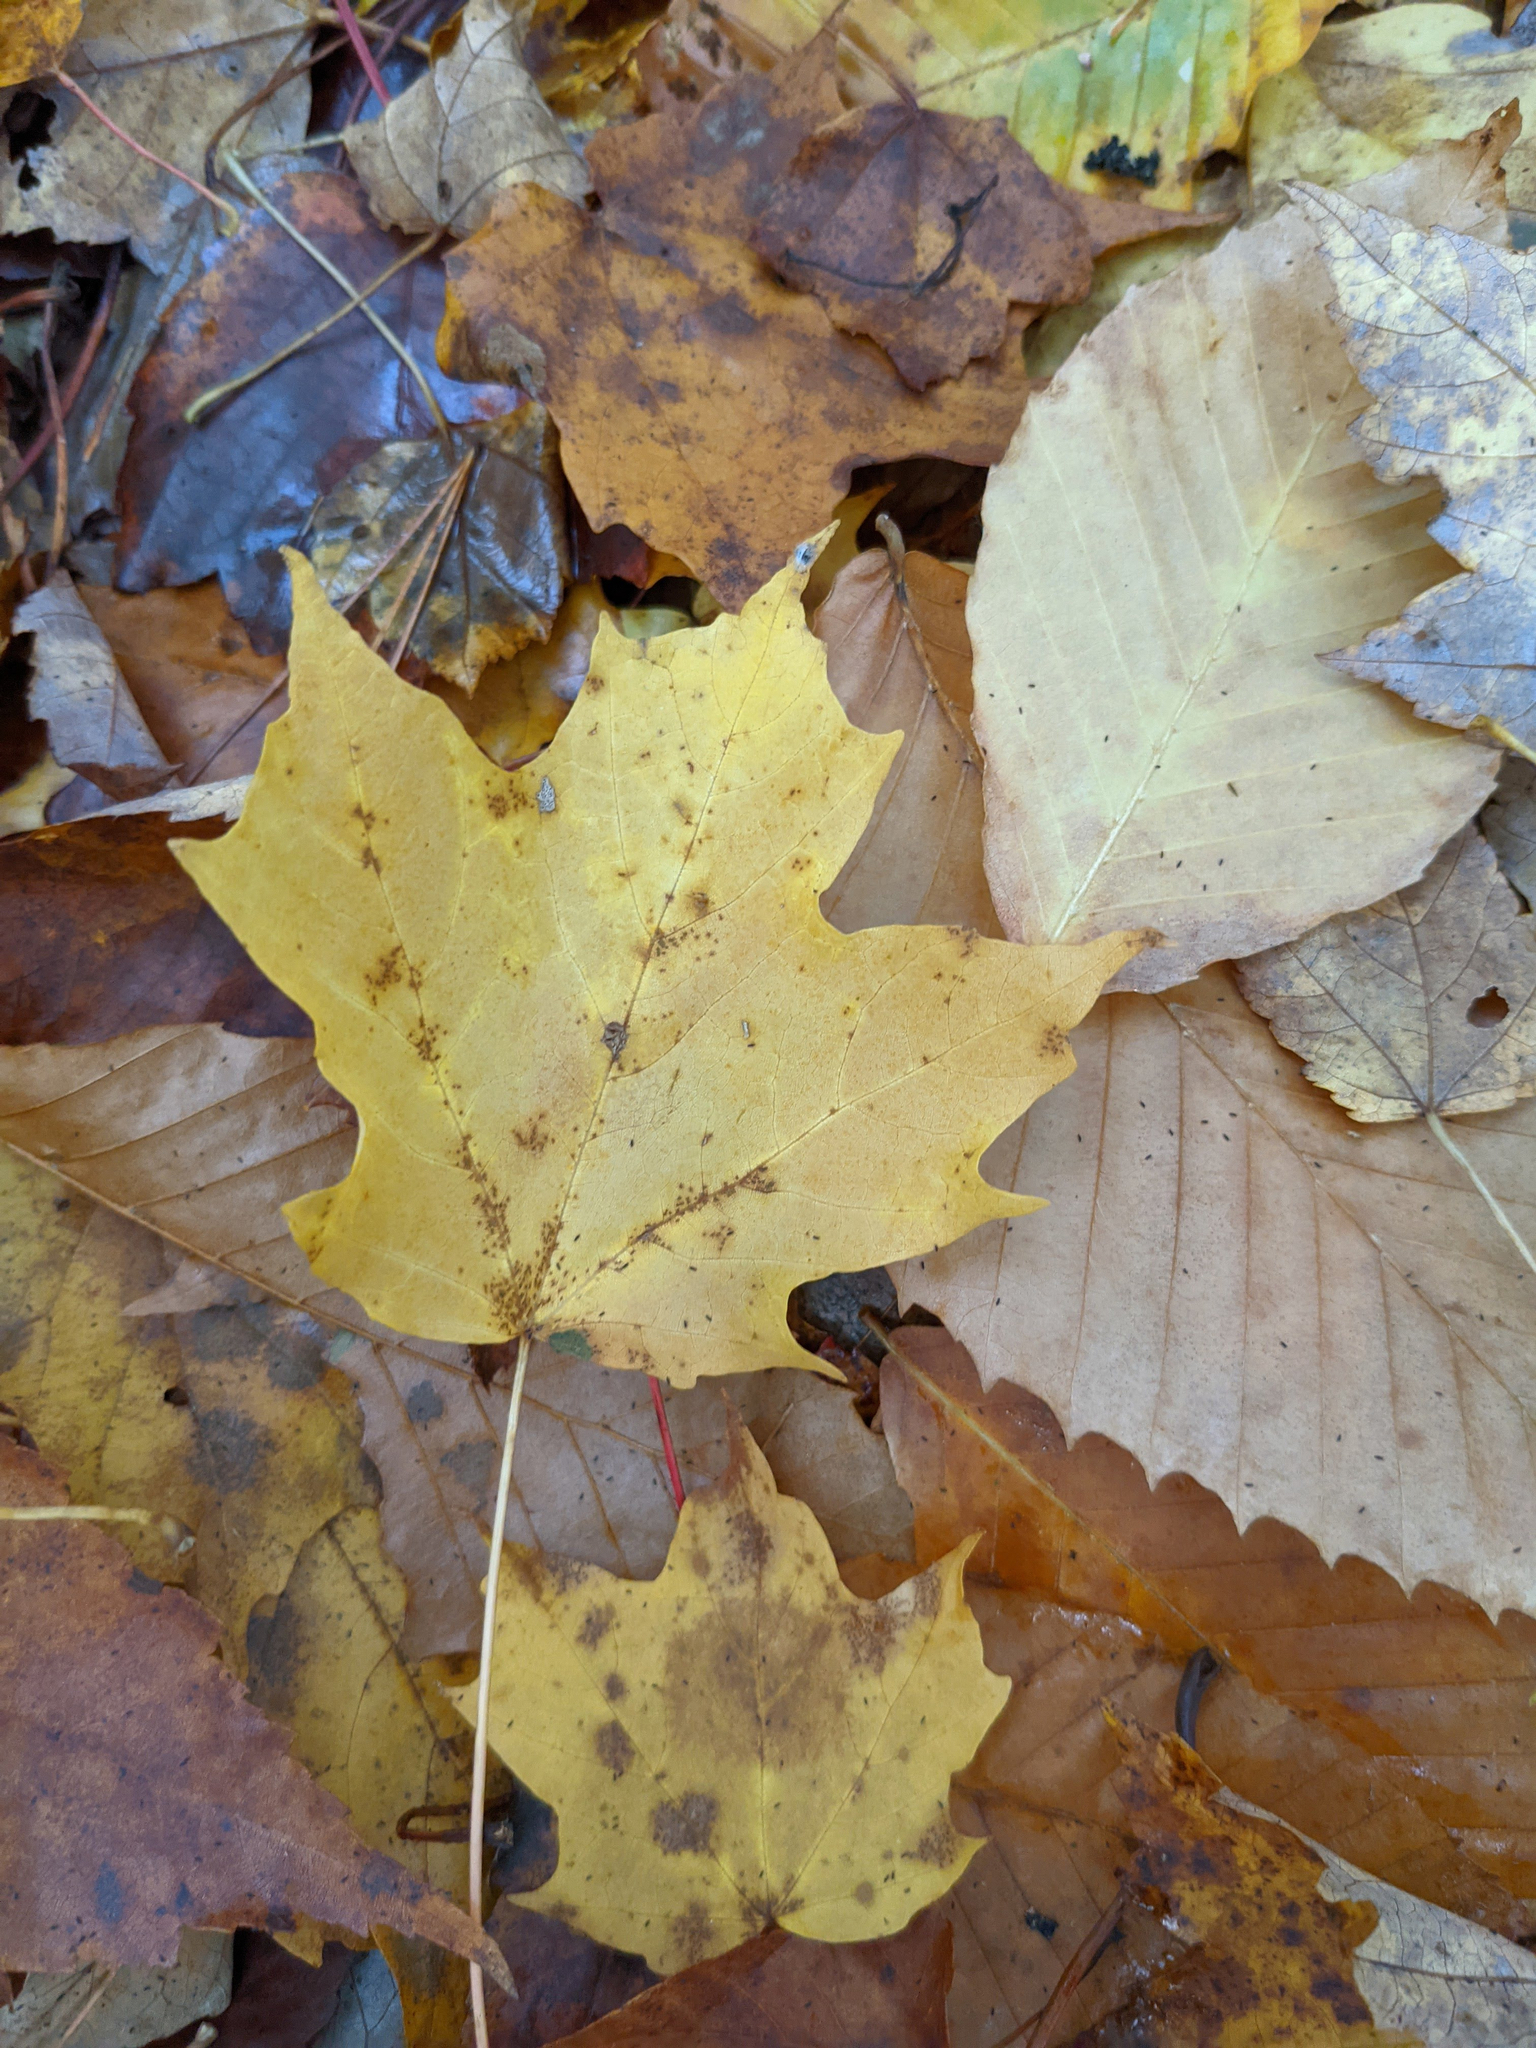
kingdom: Plantae
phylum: Tracheophyta
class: Magnoliopsida
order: Sapindales
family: Sapindaceae
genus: Acer
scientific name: Acer saccharum
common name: Sugar maple
